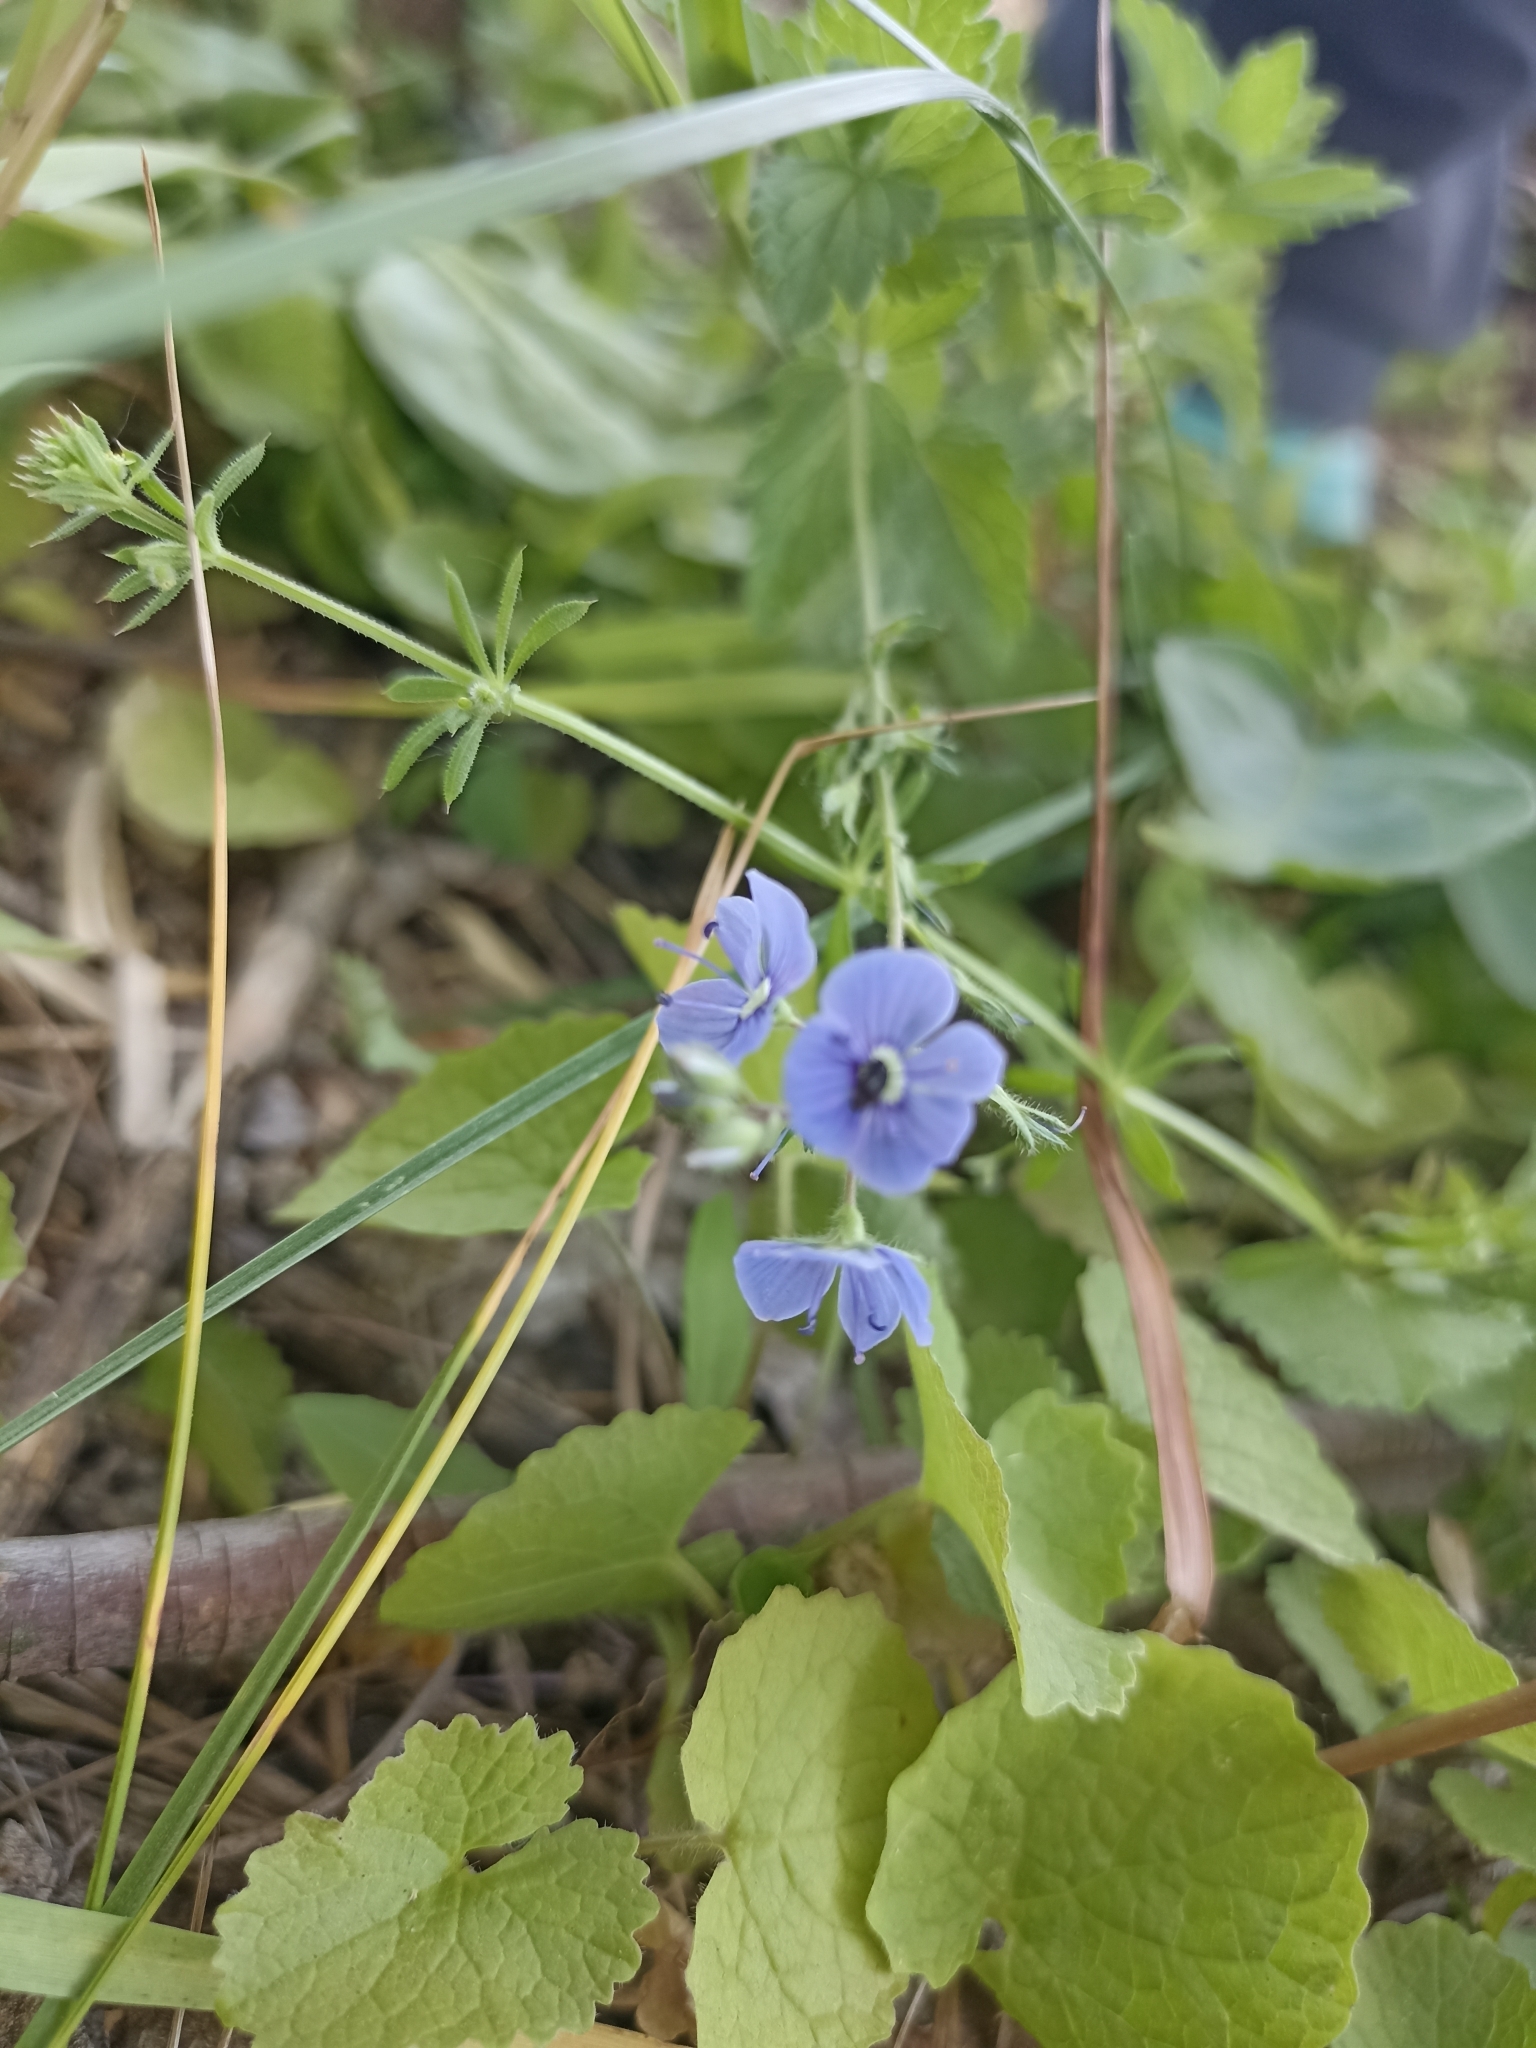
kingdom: Plantae
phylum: Tracheophyta
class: Magnoliopsida
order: Lamiales
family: Plantaginaceae
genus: Veronica
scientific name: Veronica chamaedrys
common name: Germander speedwell
